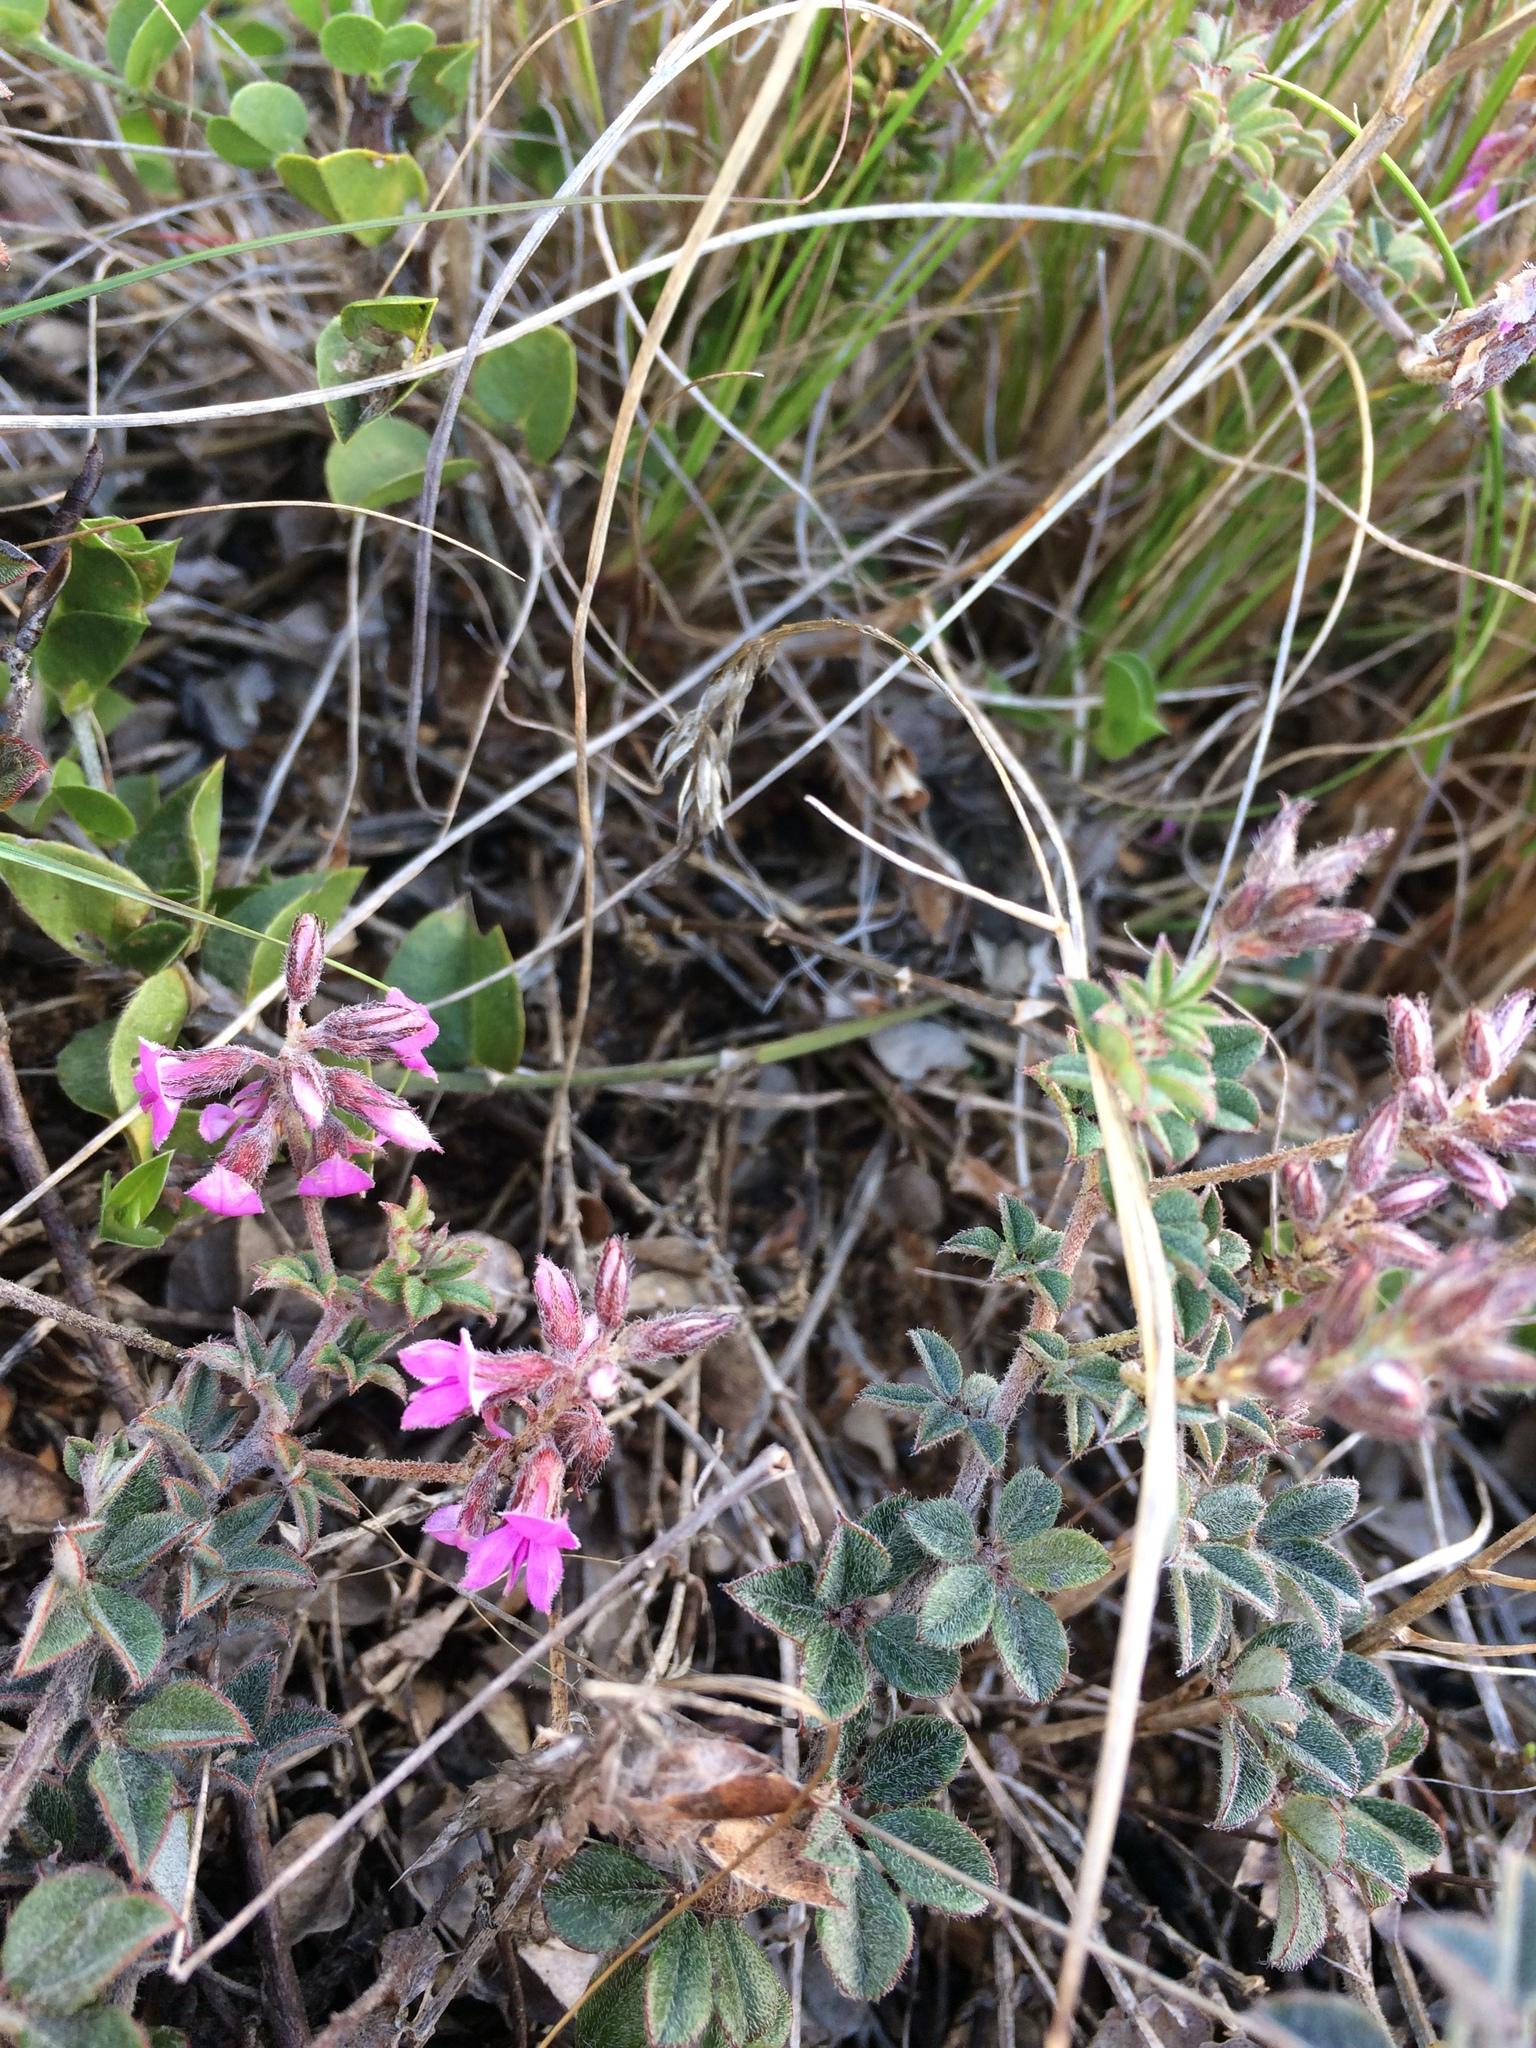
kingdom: Plantae
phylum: Tracheophyta
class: Magnoliopsida
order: Fabales
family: Fabaceae
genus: Indigofera
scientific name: Indigofera mauritanica
